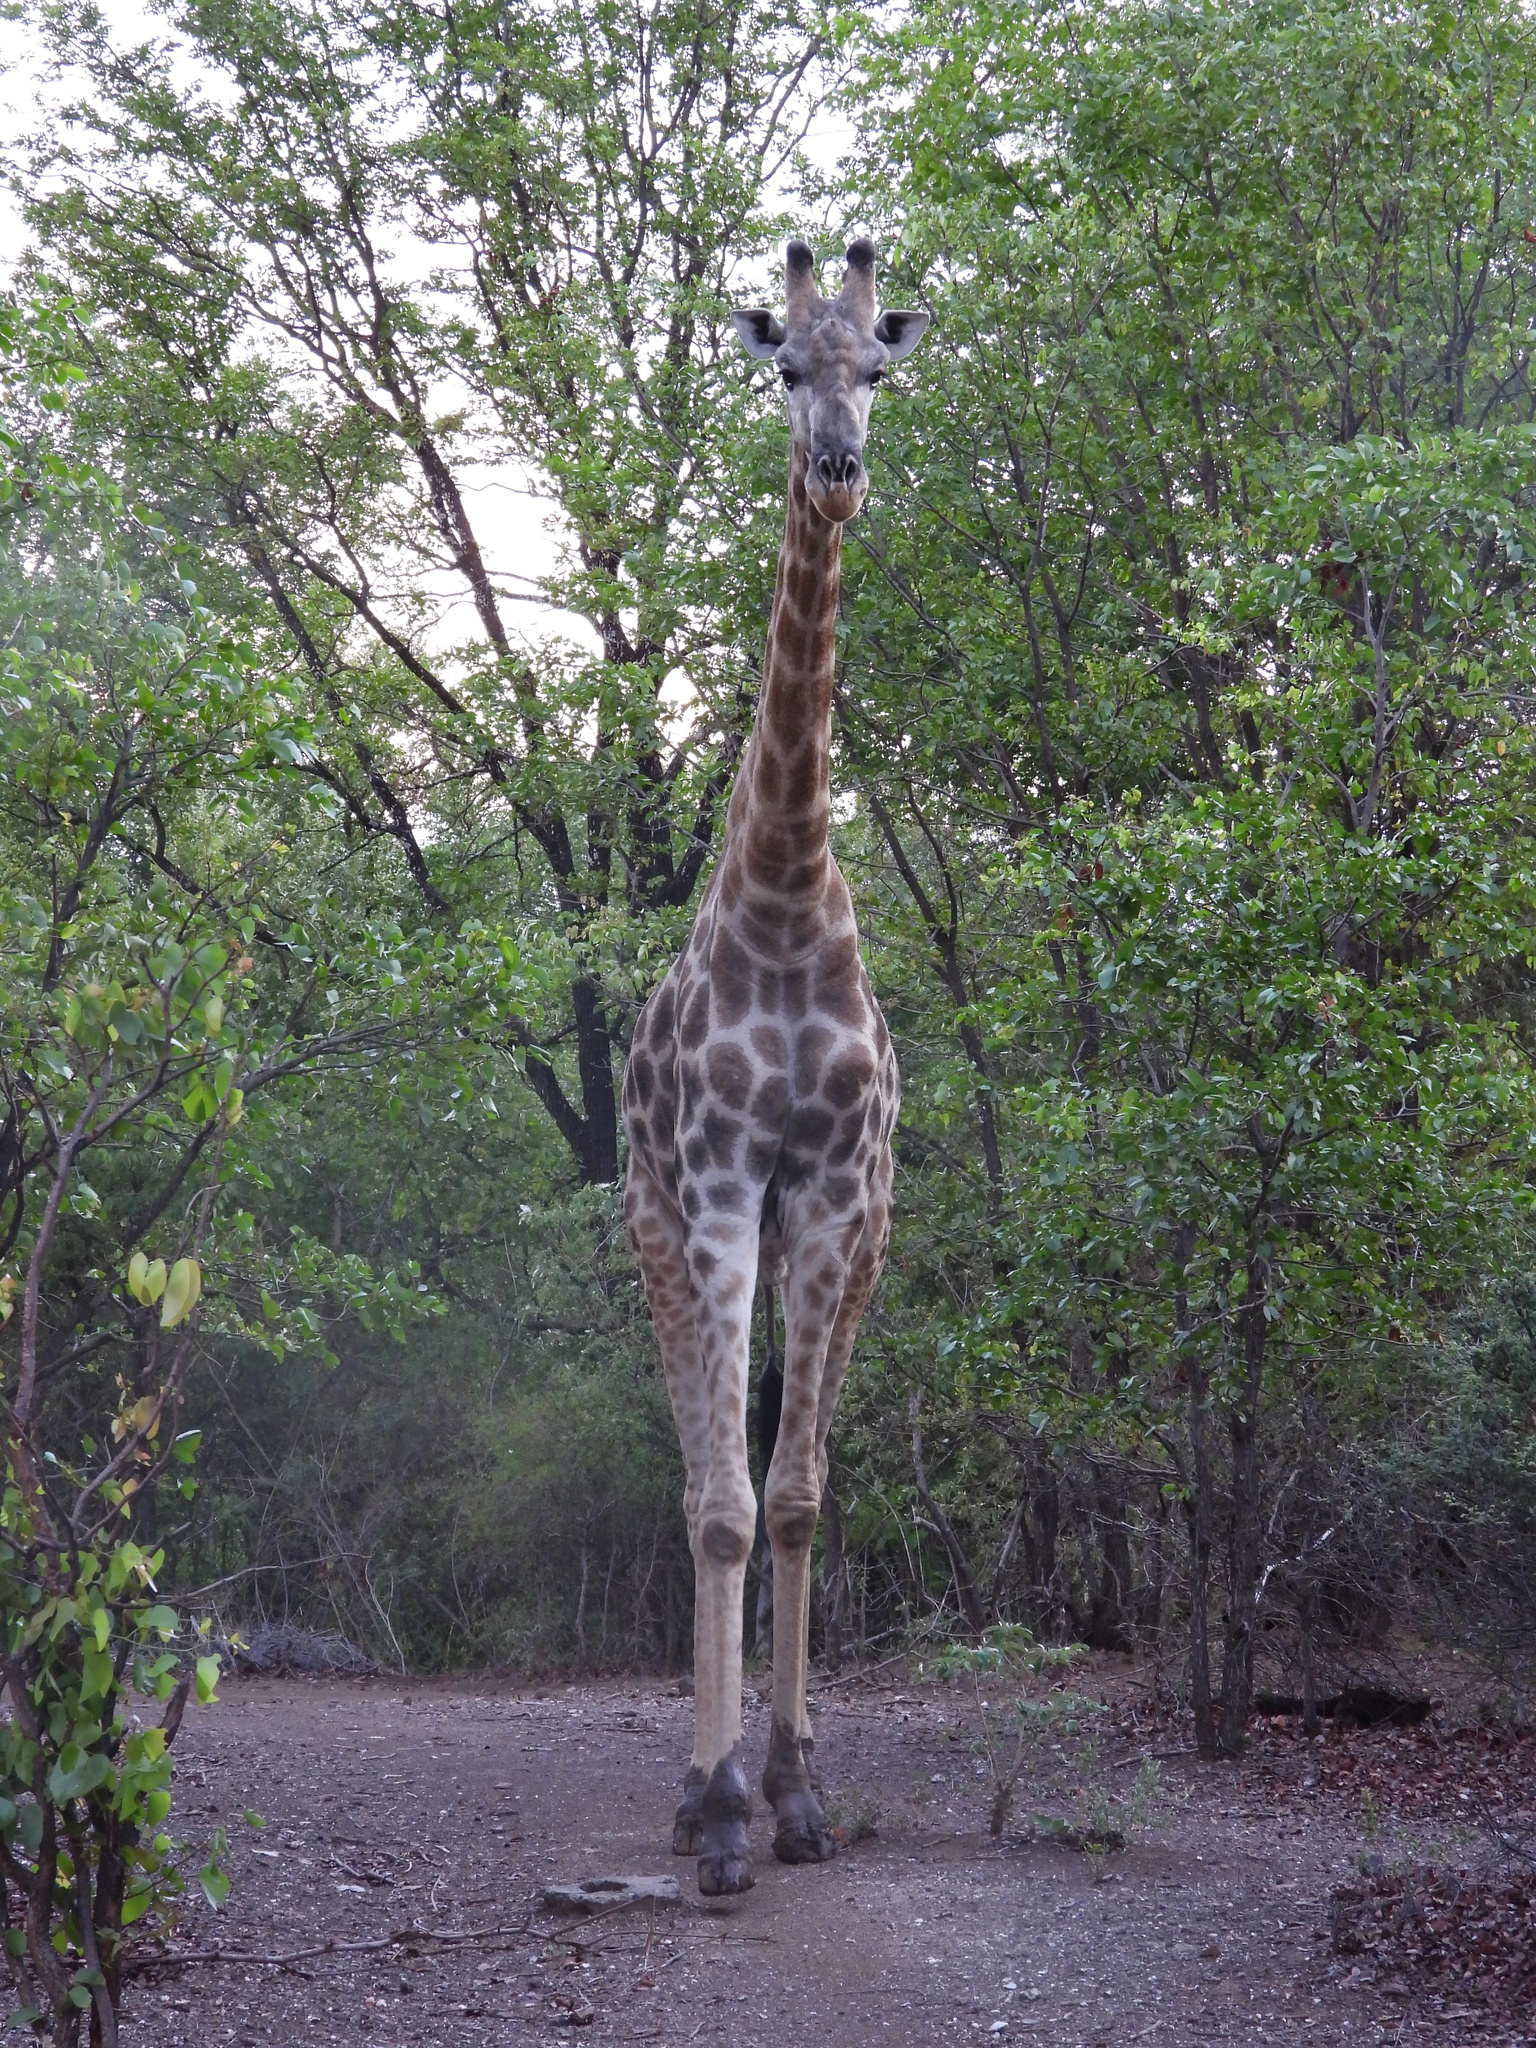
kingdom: Animalia
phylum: Chordata
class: Mammalia
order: Artiodactyla
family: Giraffidae
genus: Giraffa
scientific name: Giraffa giraffa
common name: Southern giraffe
